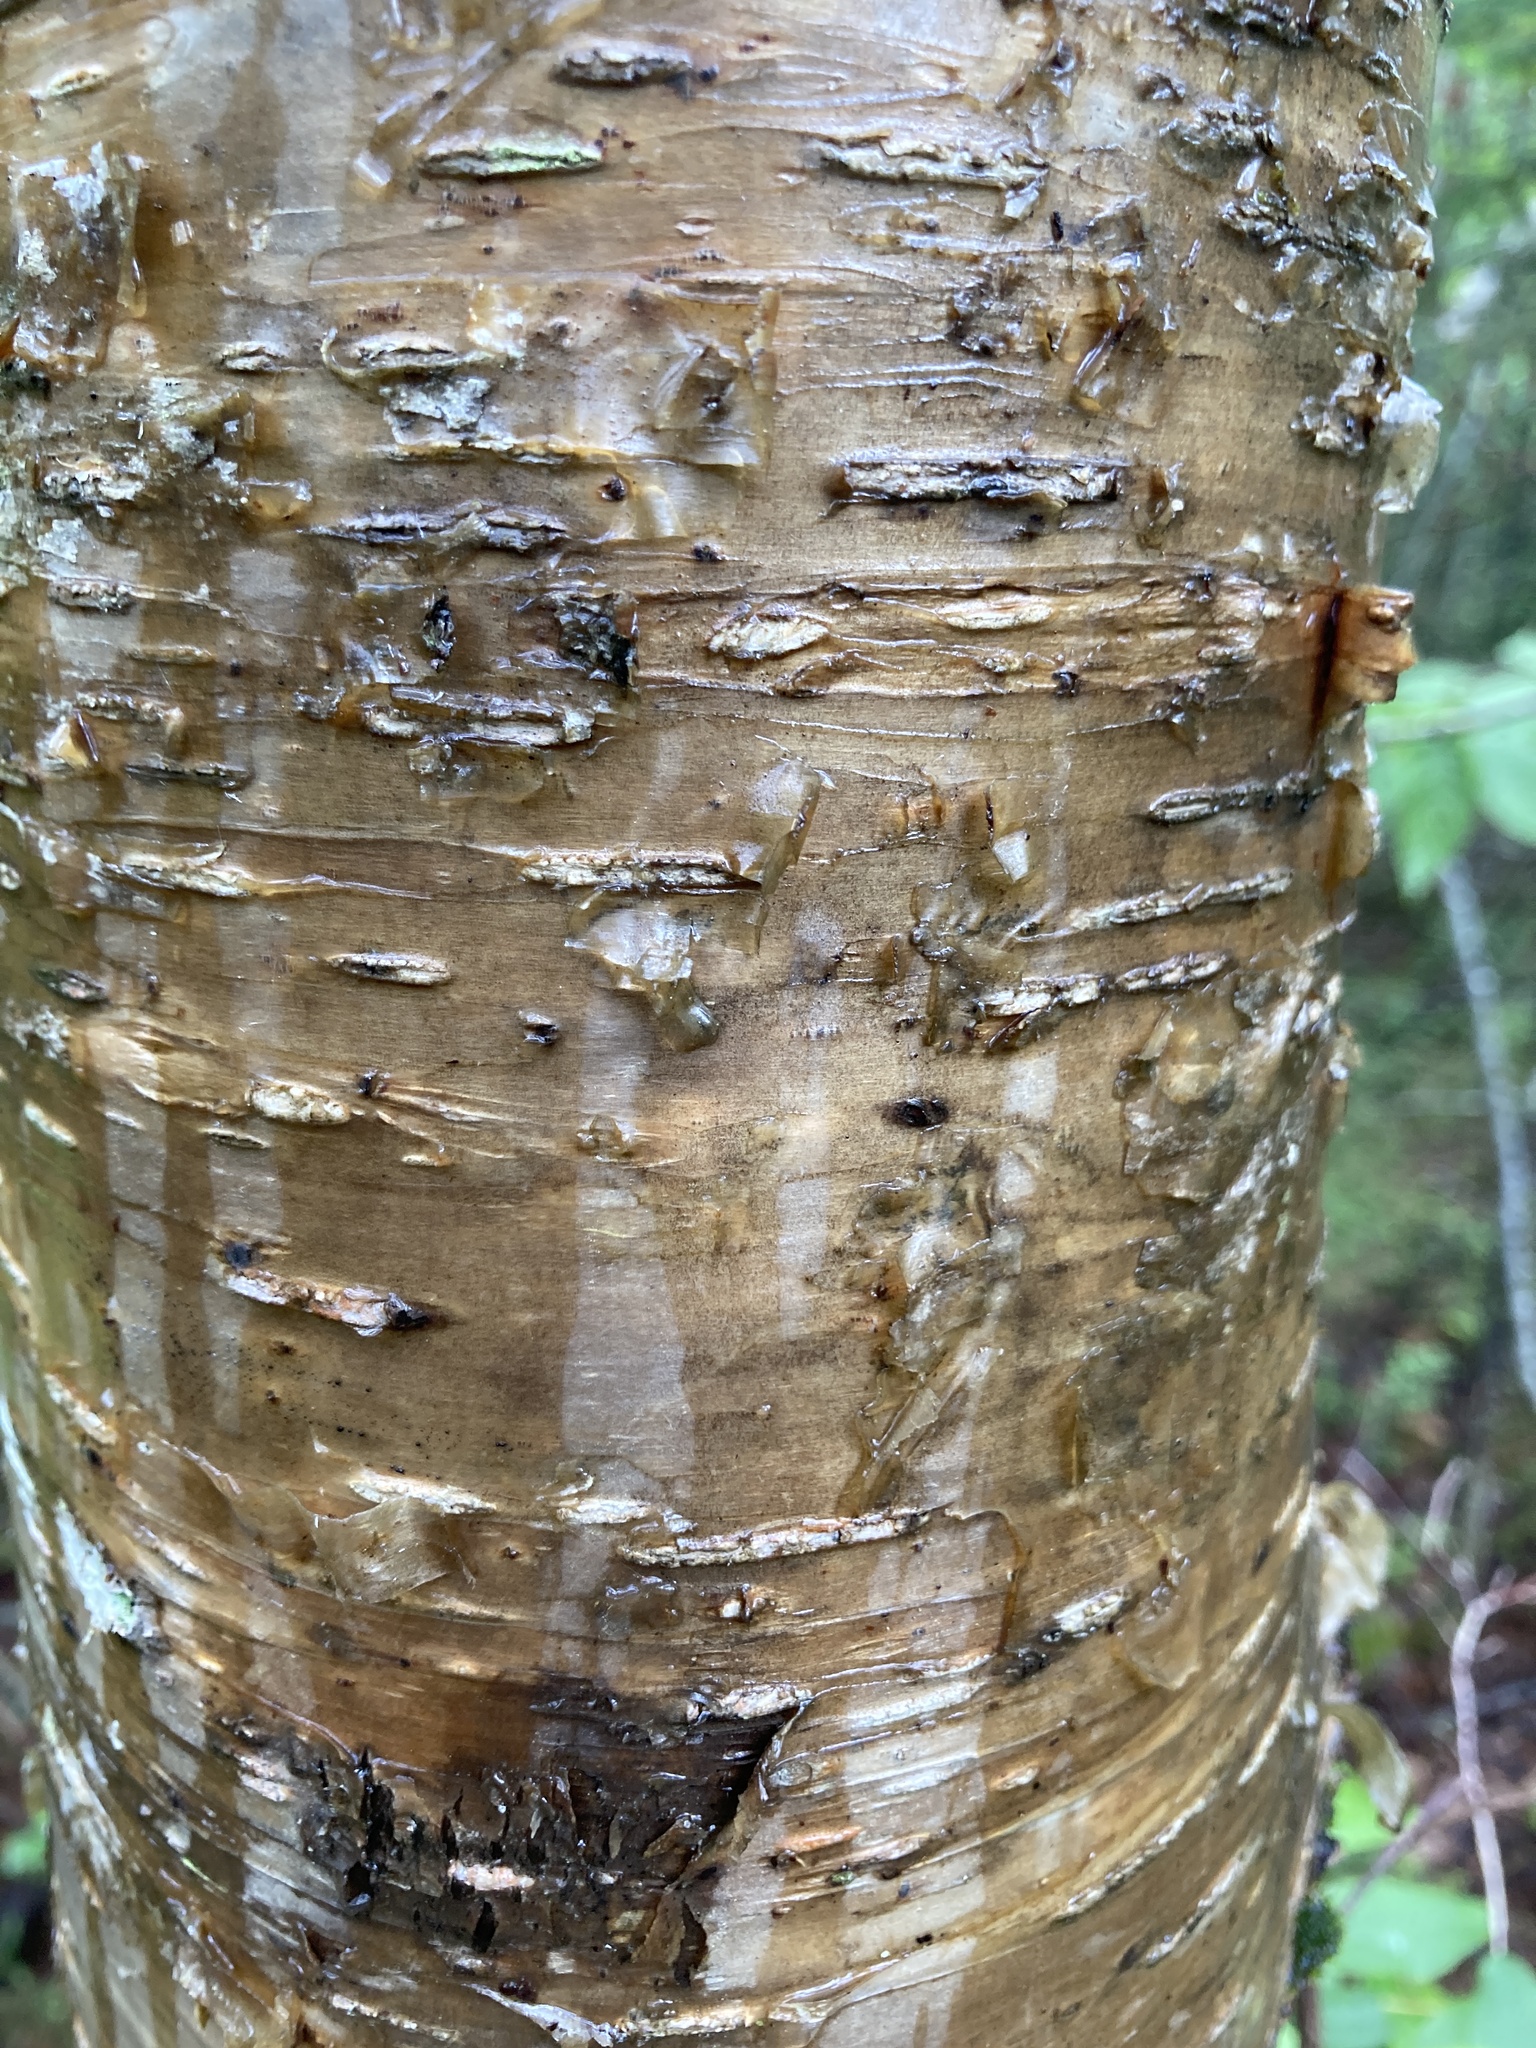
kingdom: Plantae
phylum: Tracheophyta
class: Magnoliopsida
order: Fagales
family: Betulaceae
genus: Betula
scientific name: Betula alleghaniensis
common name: Yellow birch
